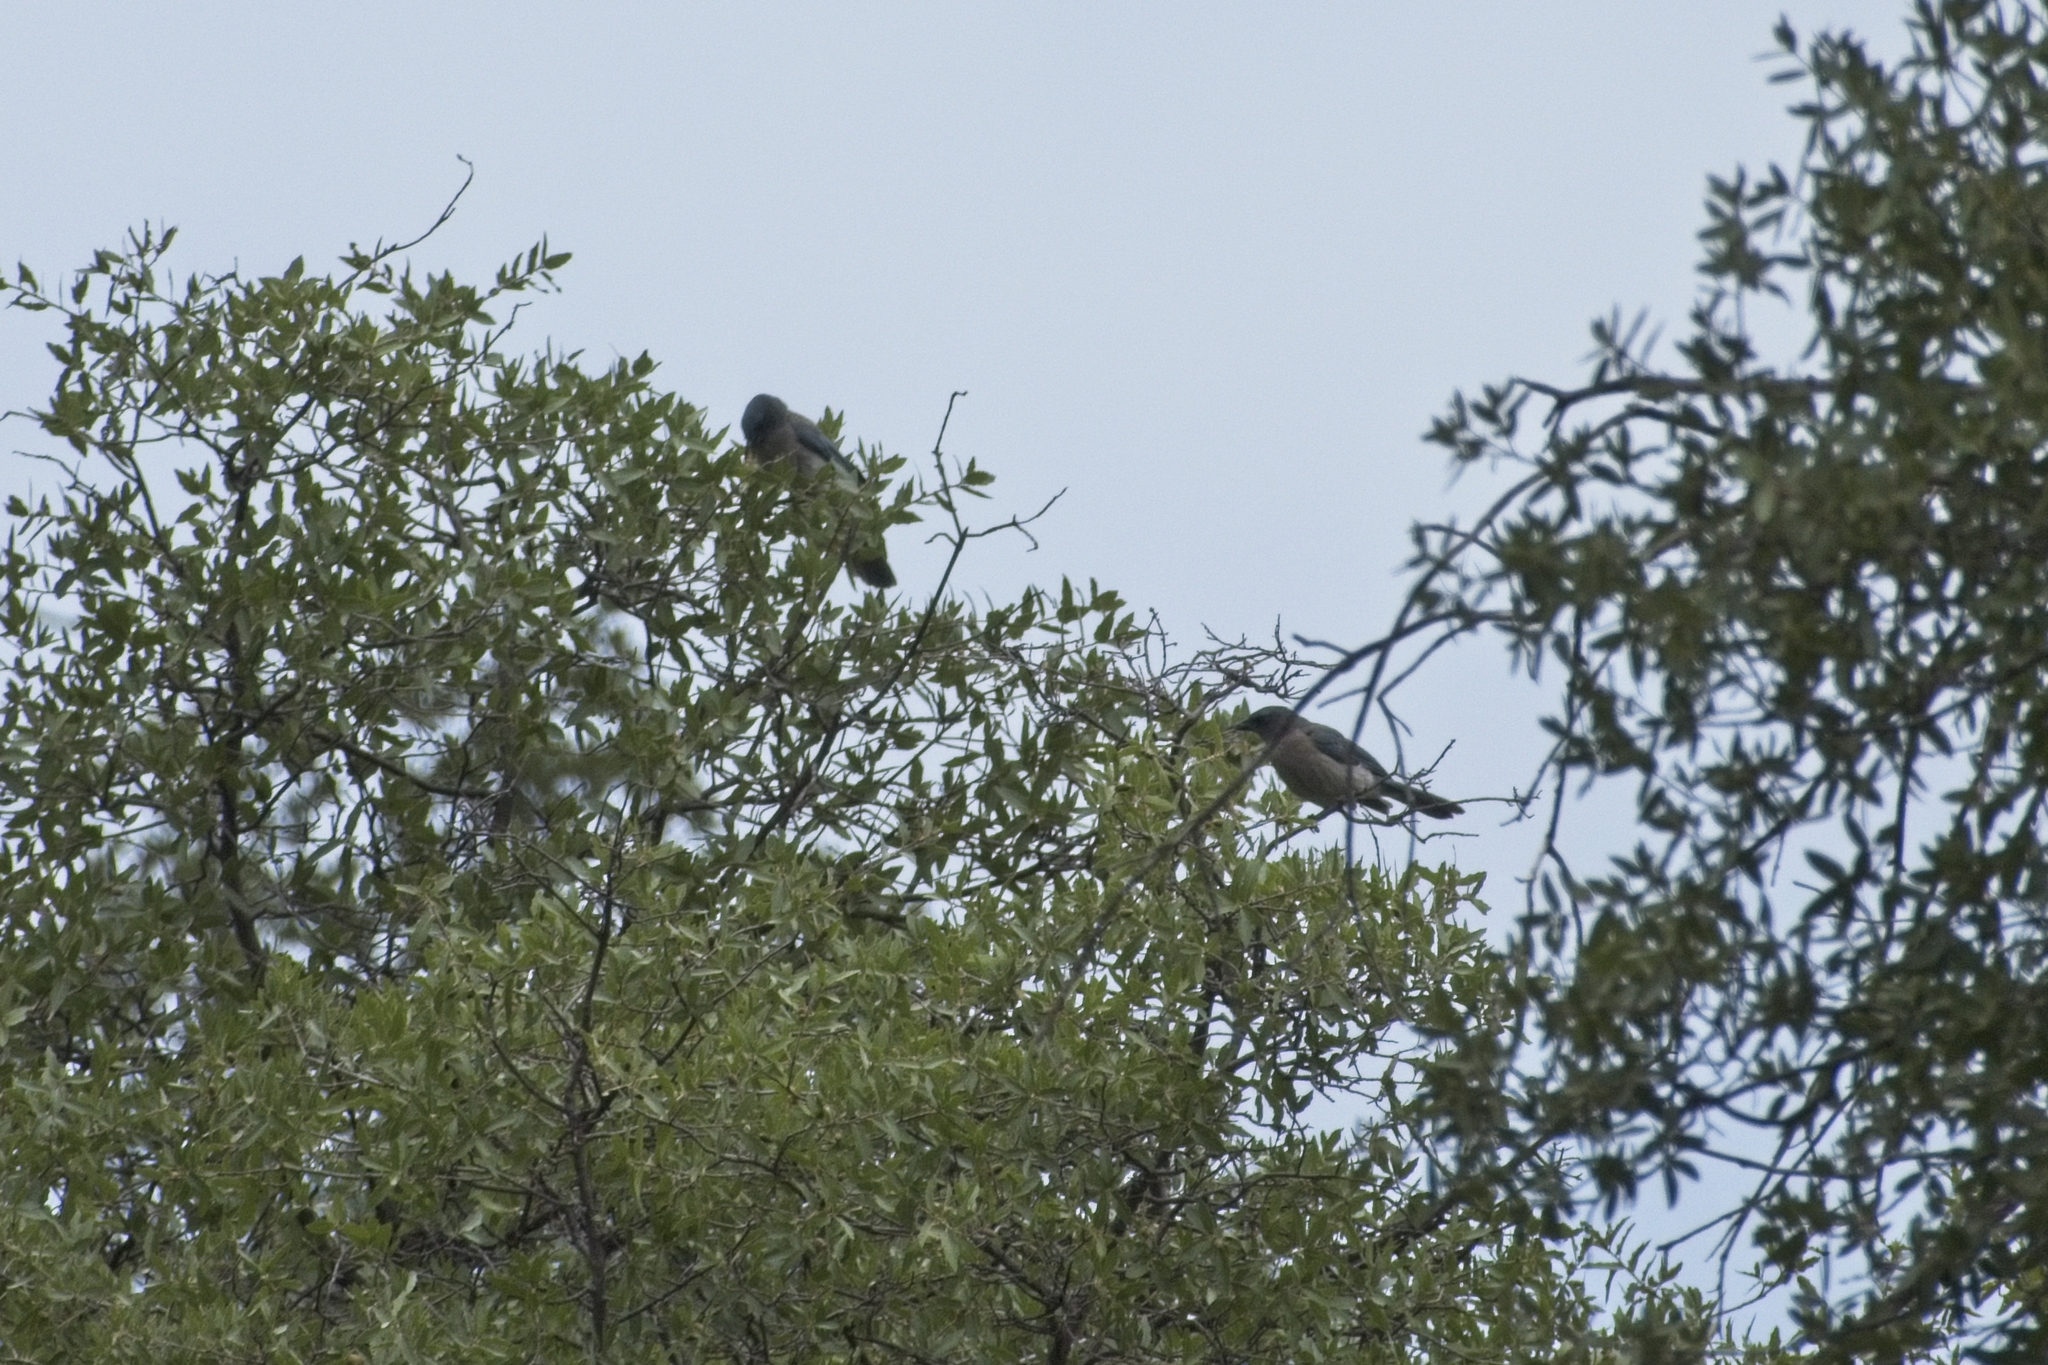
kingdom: Animalia
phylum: Chordata
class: Aves
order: Passeriformes
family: Corvidae
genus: Aphelocoma
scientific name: Aphelocoma wollweberi
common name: Mexican jay
